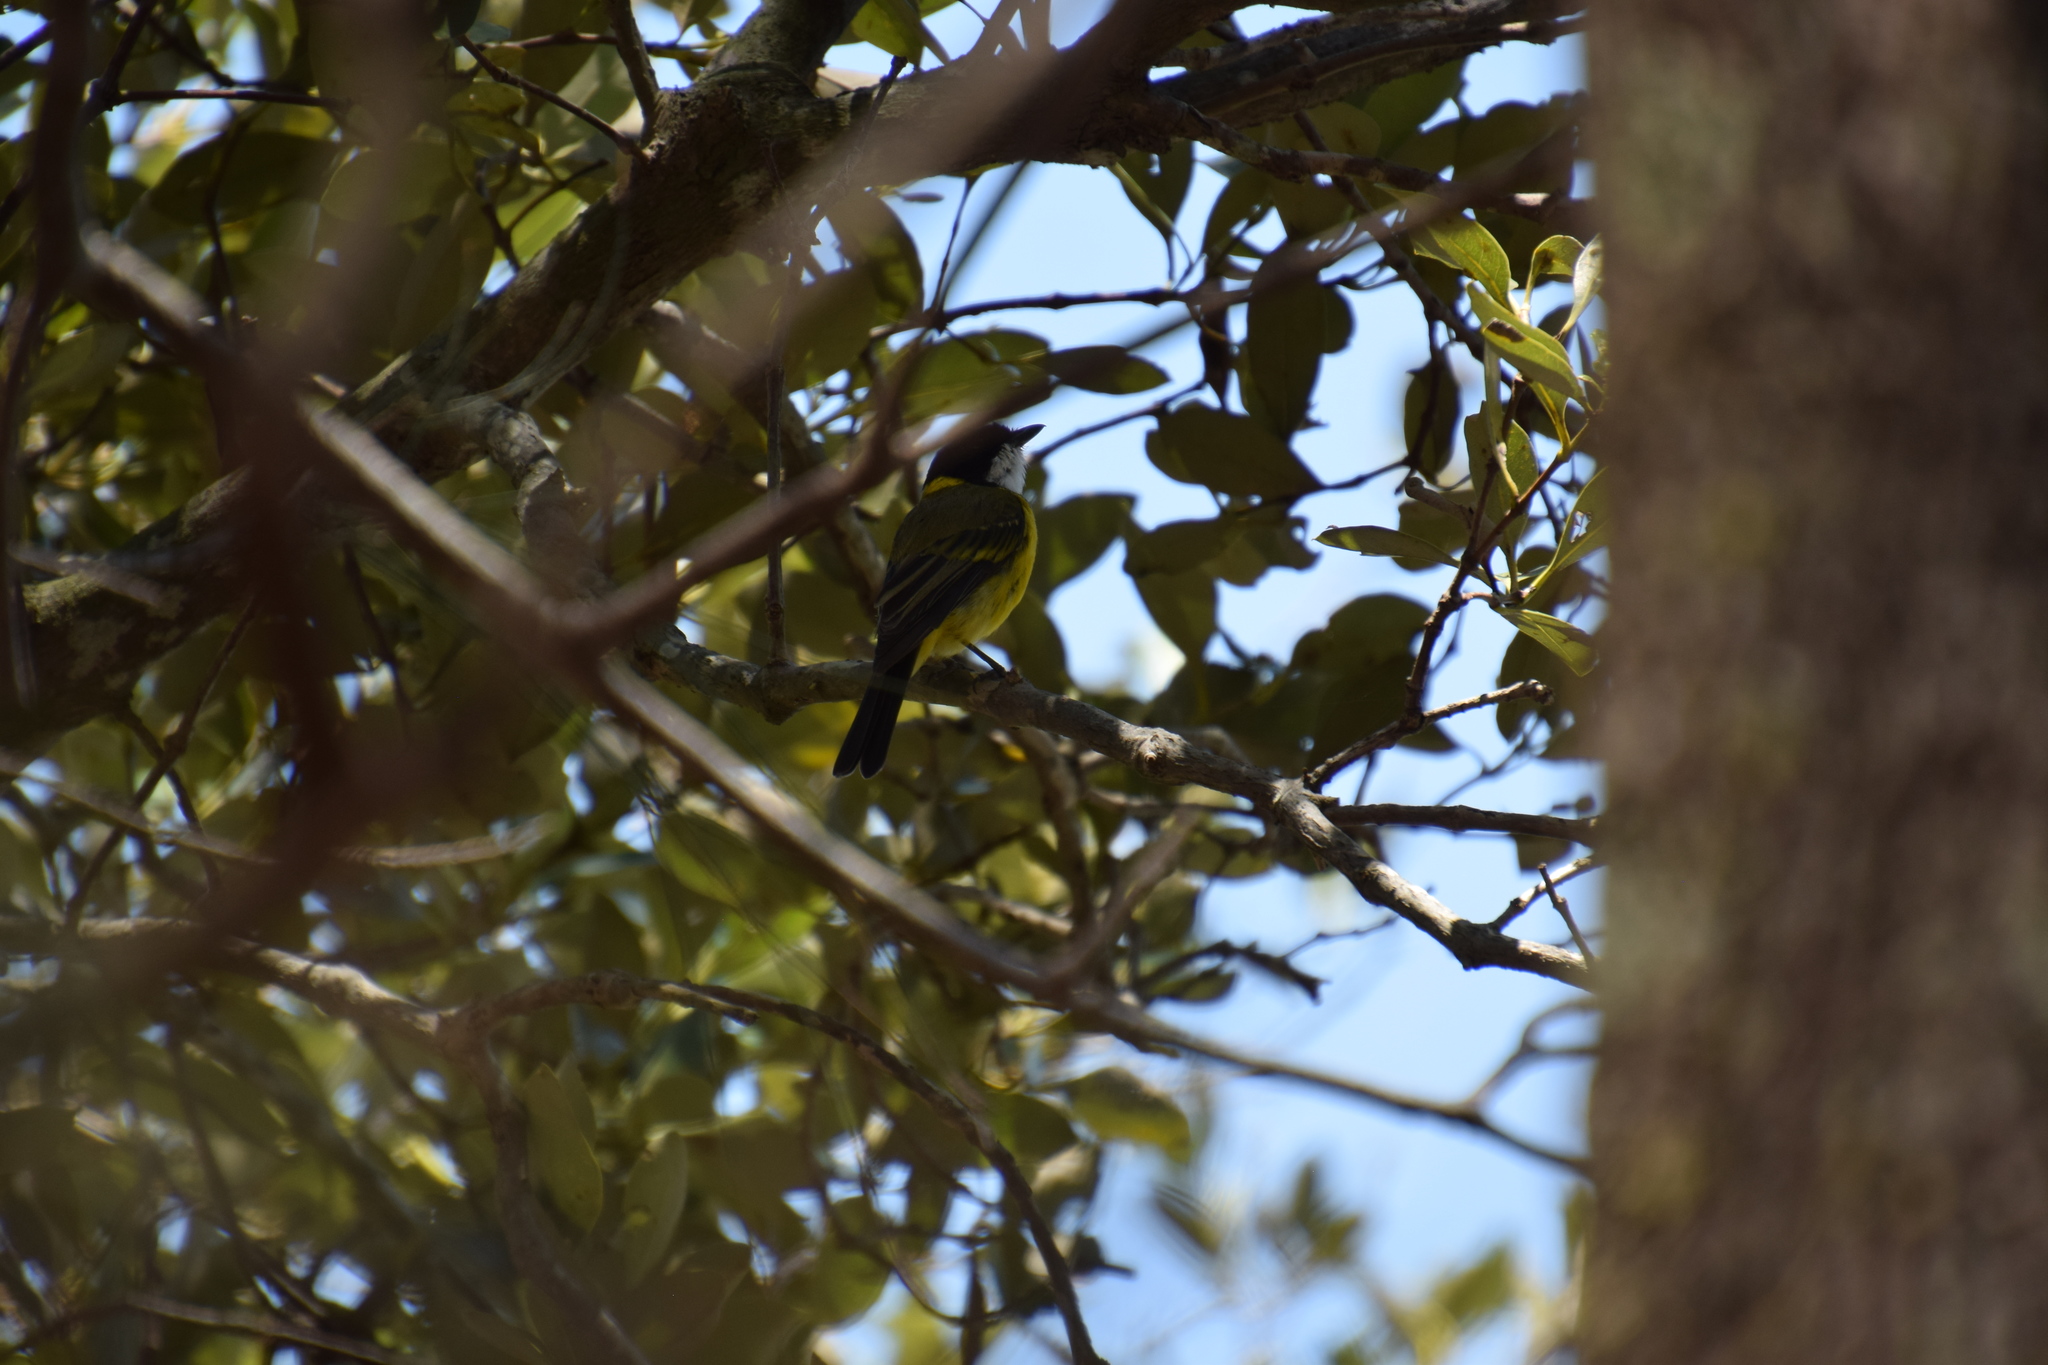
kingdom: Animalia
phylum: Chordata
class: Aves
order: Passeriformes
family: Pachycephalidae
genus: Pachycephala
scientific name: Pachycephala pectoralis
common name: Australian golden whistler
